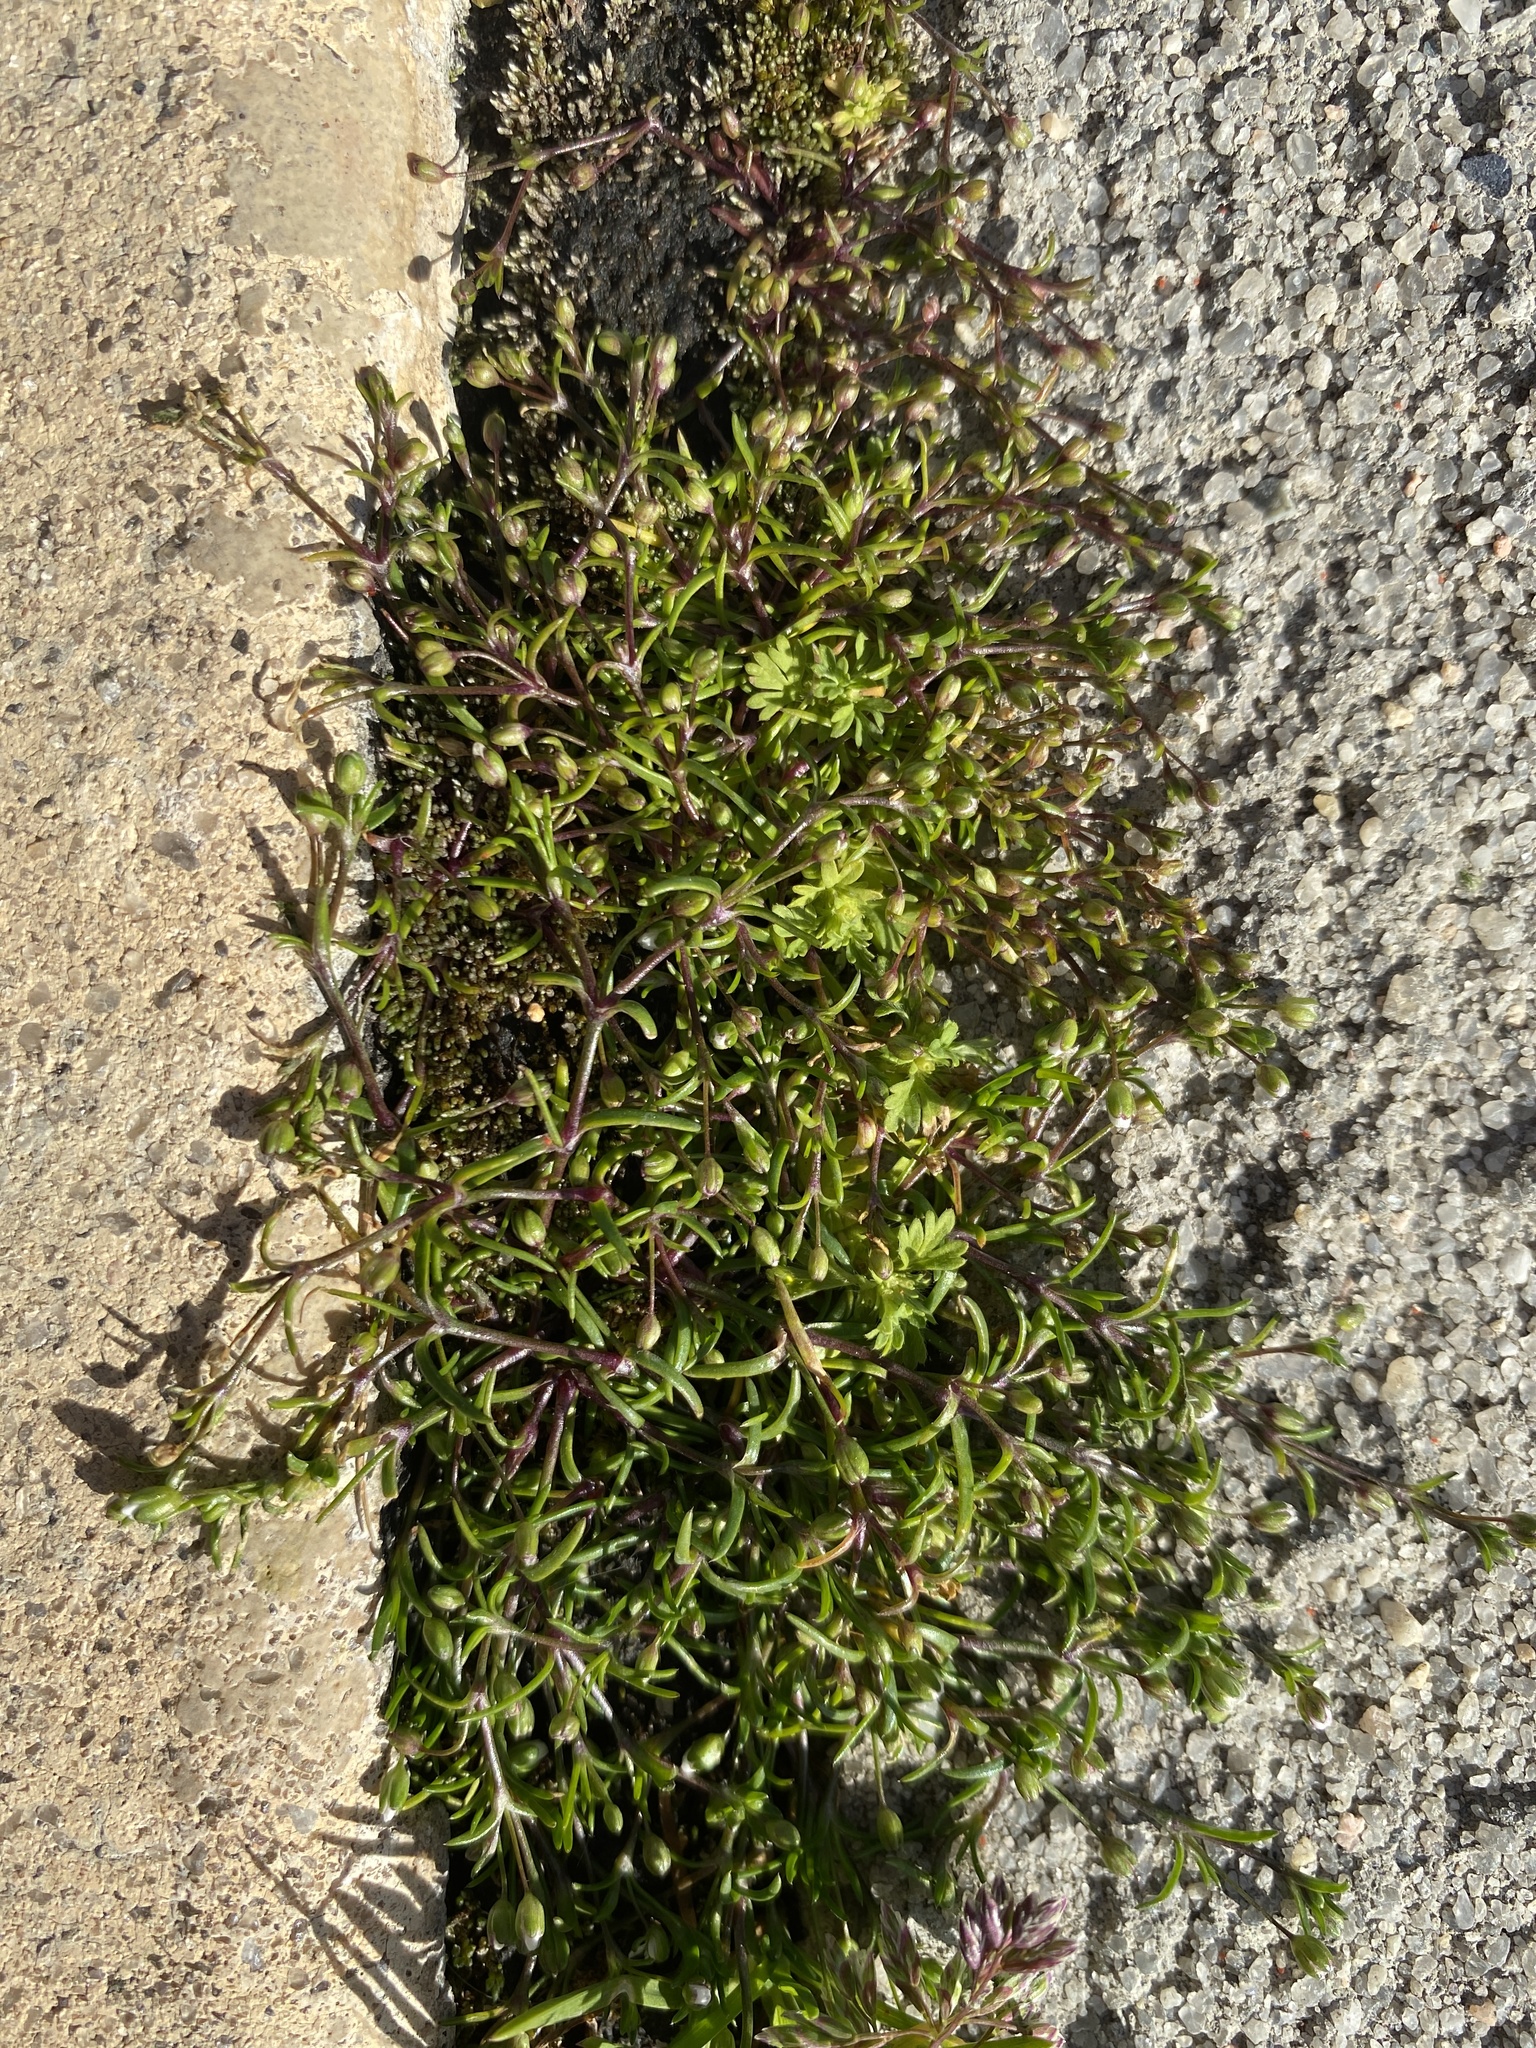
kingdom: Plantae
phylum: Tracheophyta
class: Magnoliopsida
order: Caryophyllales
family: Caryophyllaceae
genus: Sagina
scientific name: Sagina decumbens
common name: Decumbent pearlwort
